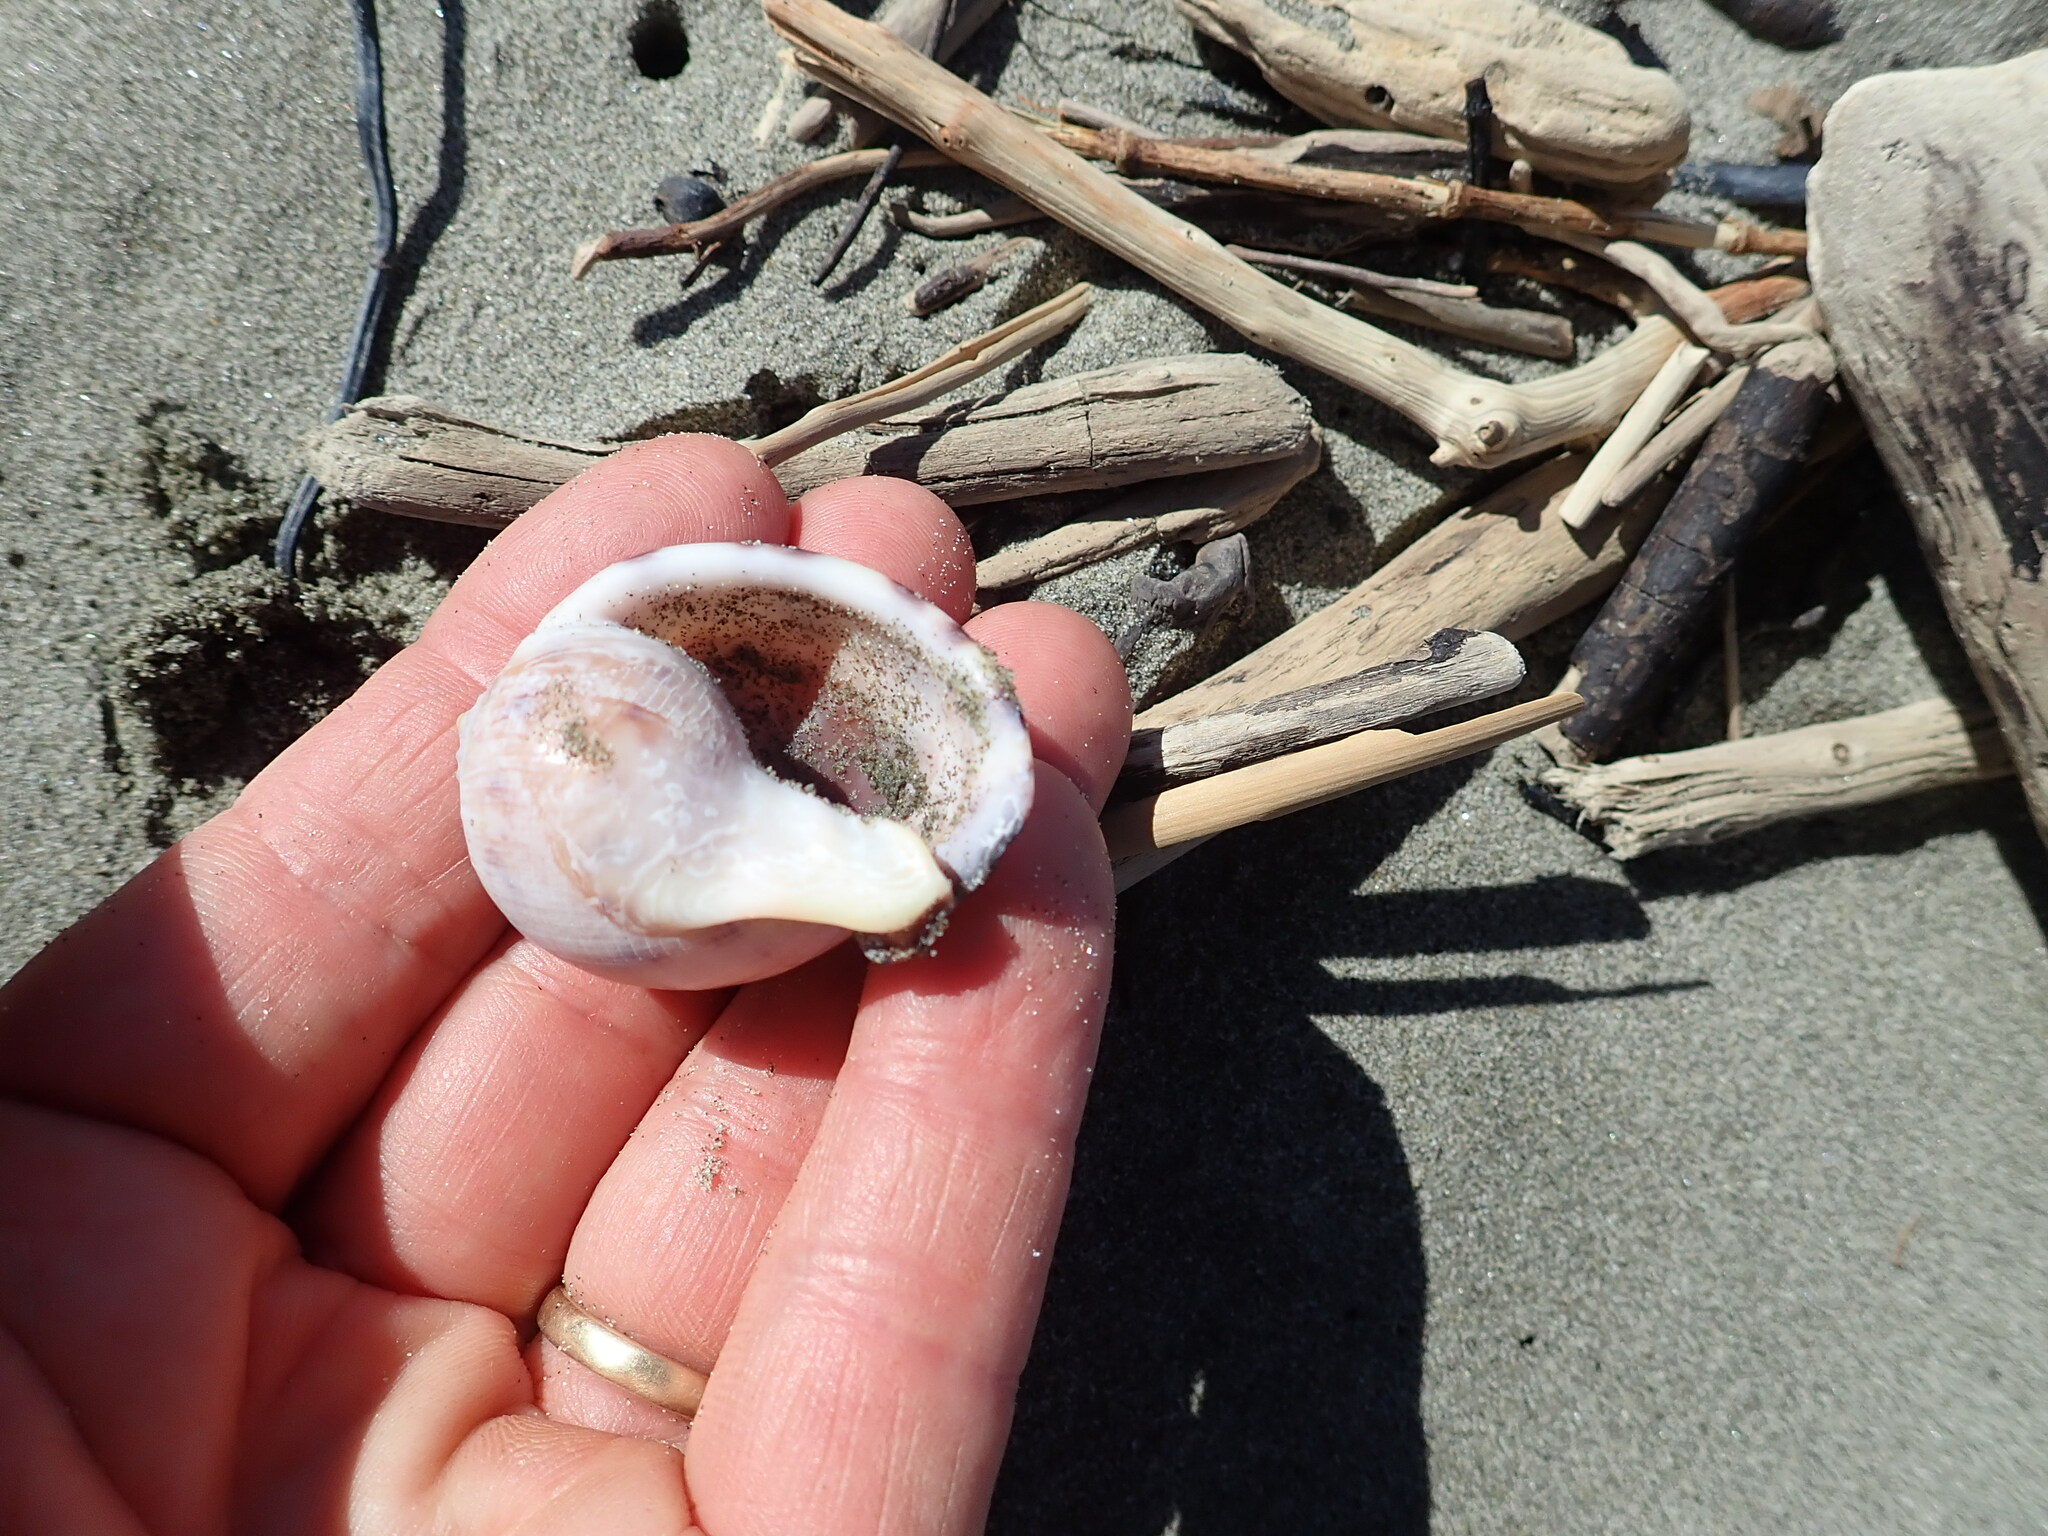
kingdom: Animalia
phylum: Mollusca
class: Gastropoda
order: Littorinimorpha
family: Cassidae
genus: Semicassis
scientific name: Semicassis pyrum
